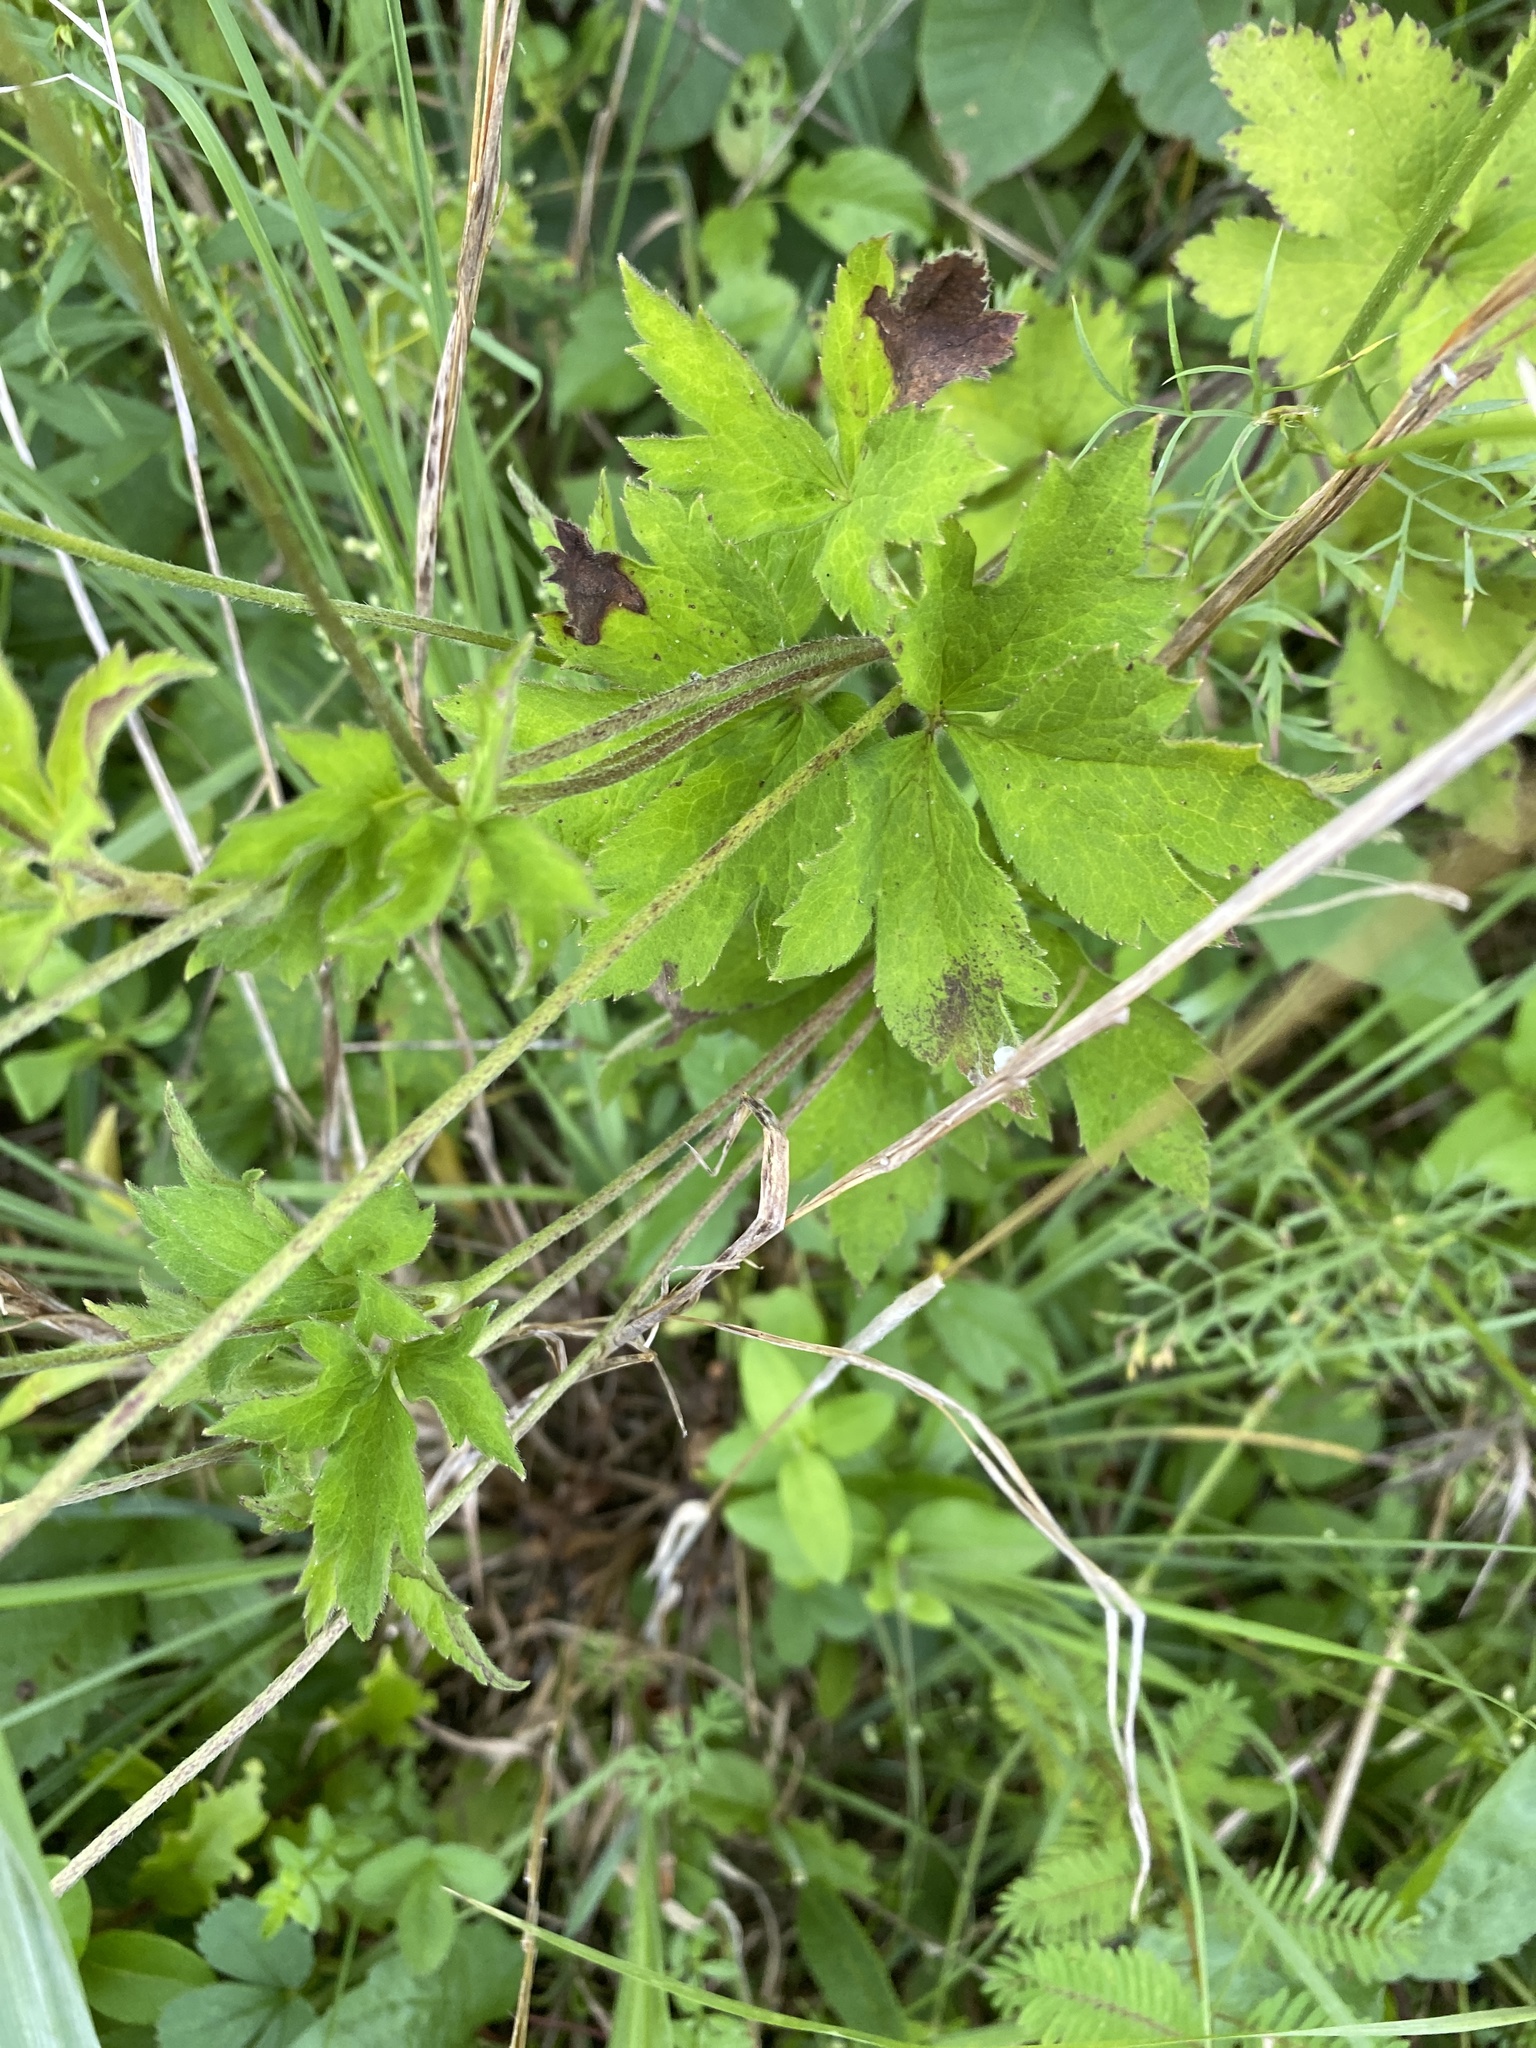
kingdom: Plantae
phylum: Tracheophyta
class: Magnoliopsida
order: Ranunculales
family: Ranunculaceae
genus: Anemone
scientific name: Anemone virginiana
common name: Tall anemone
